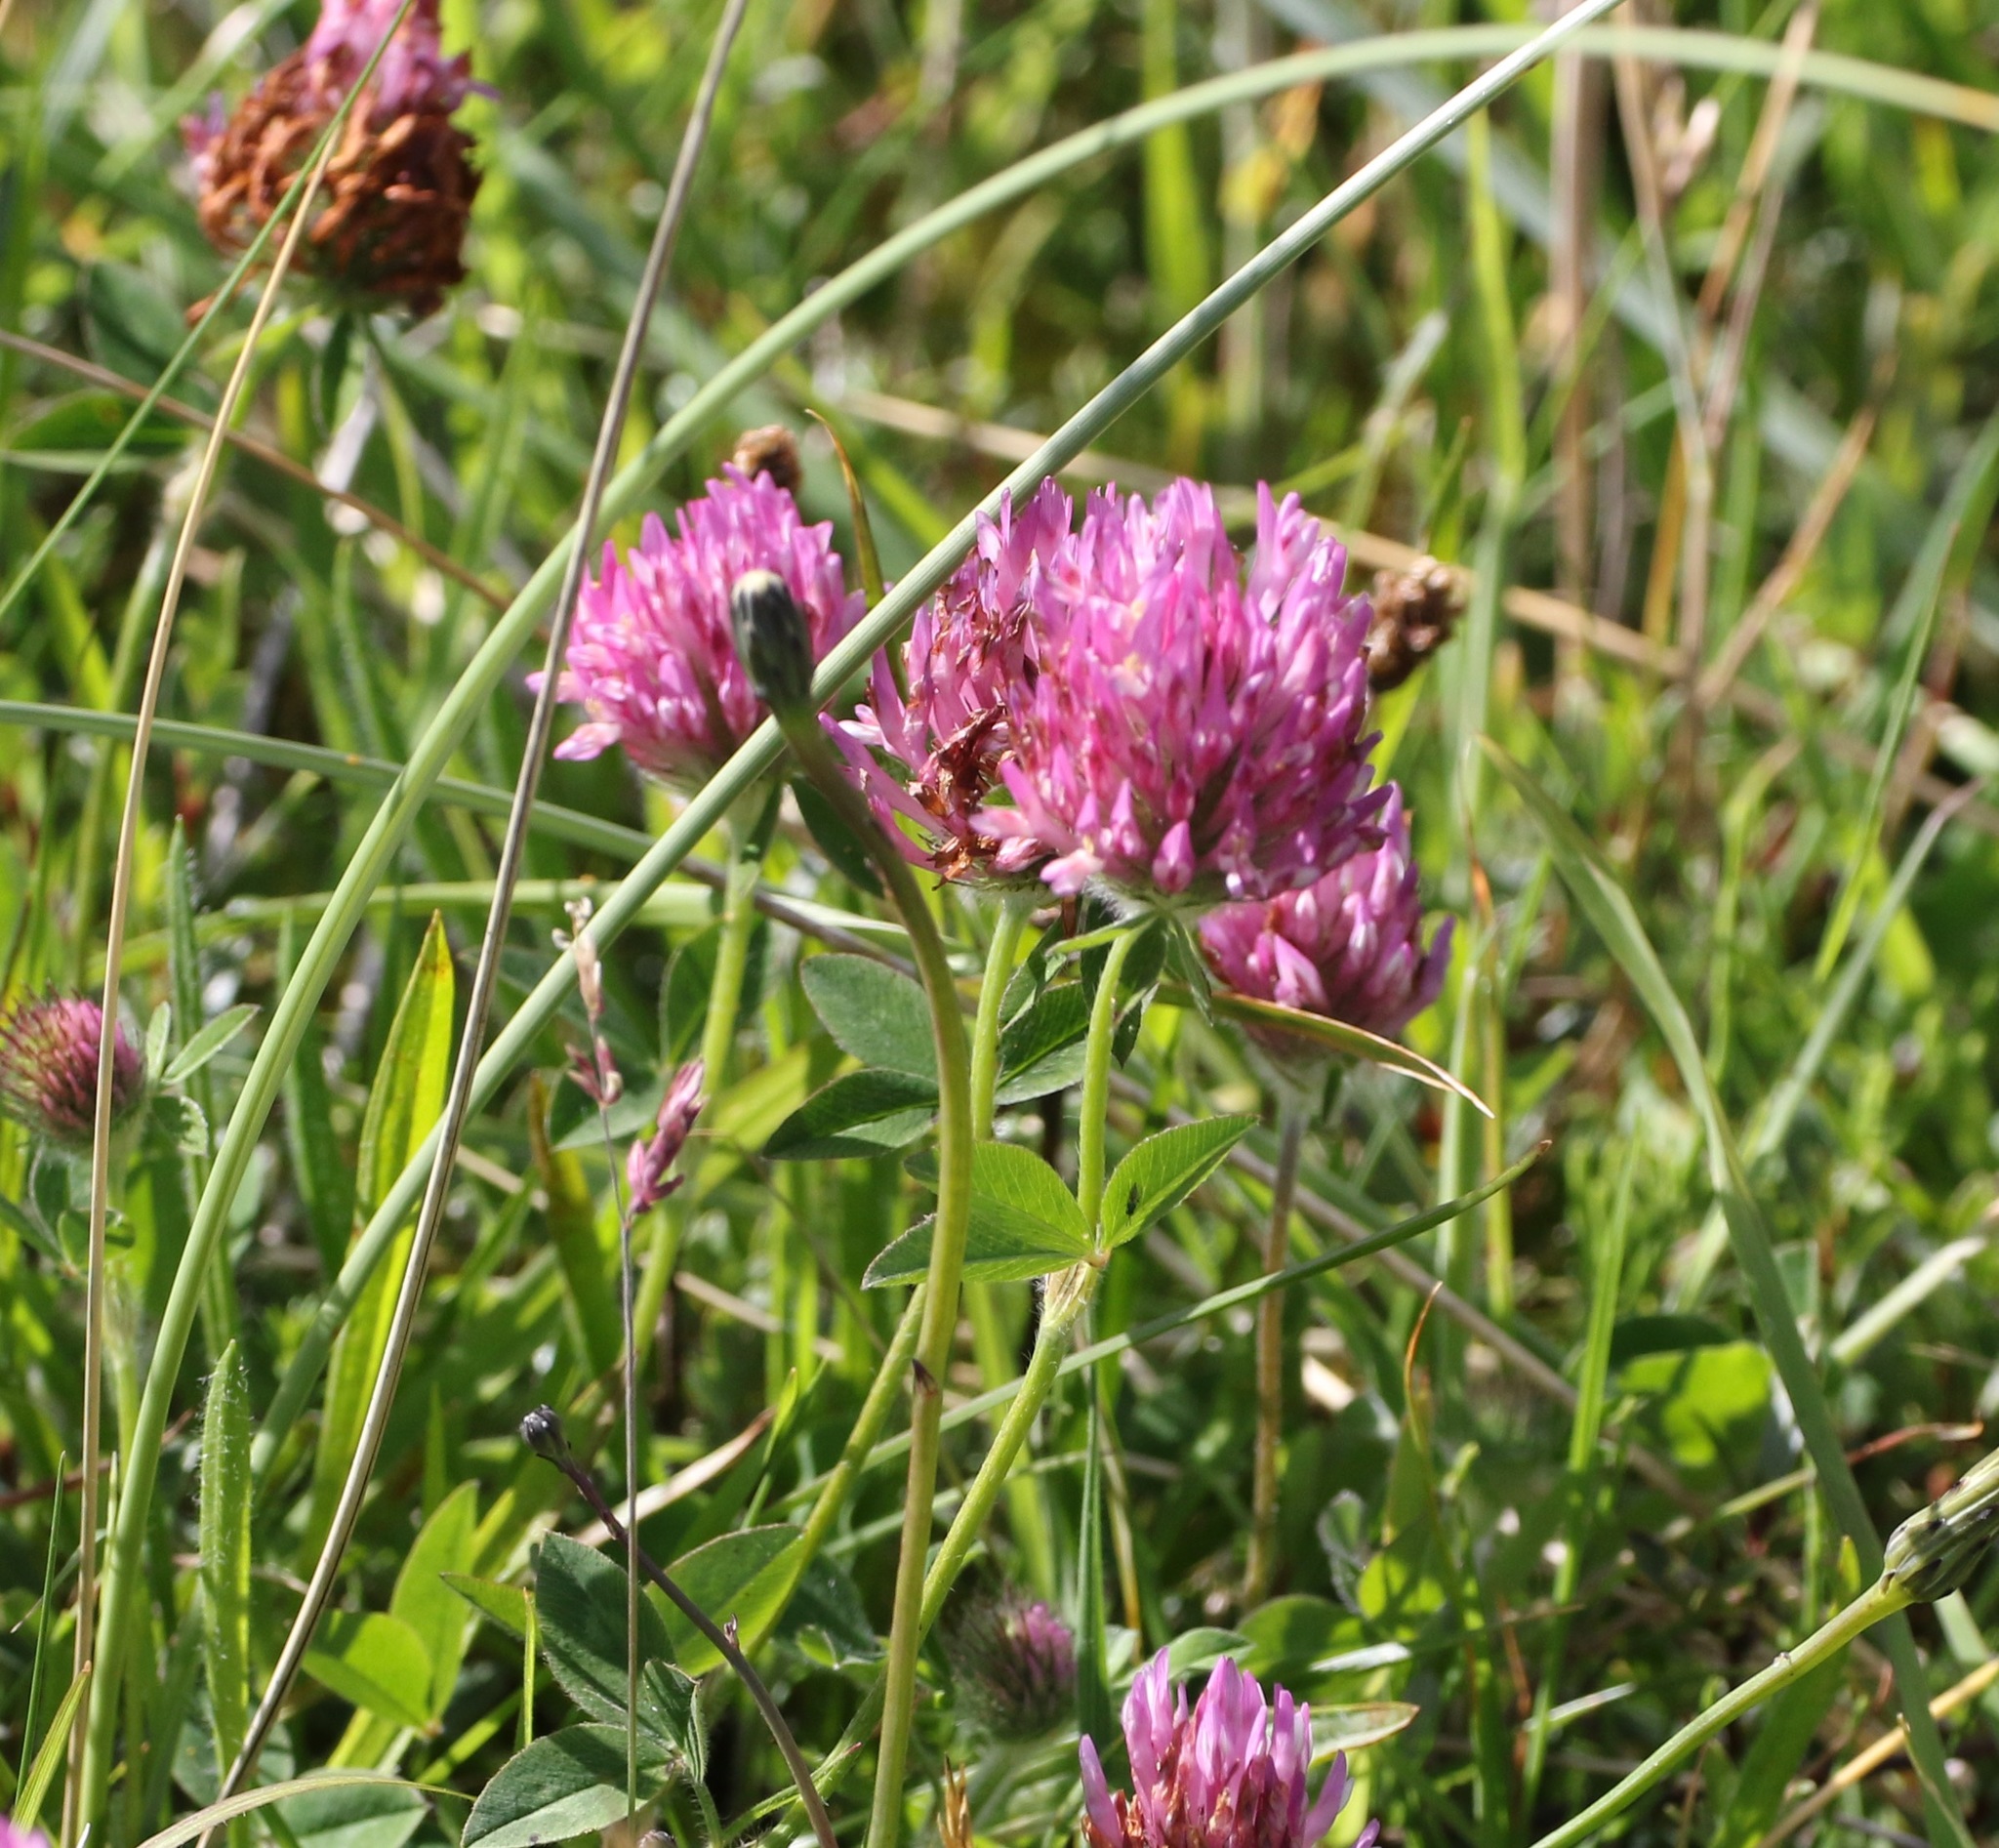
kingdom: Plantae
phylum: Tracheophyta
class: Magnoliopsida
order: Fabales
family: Fabaceae
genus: Trifolium
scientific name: Trifolium pratense
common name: Red clover
